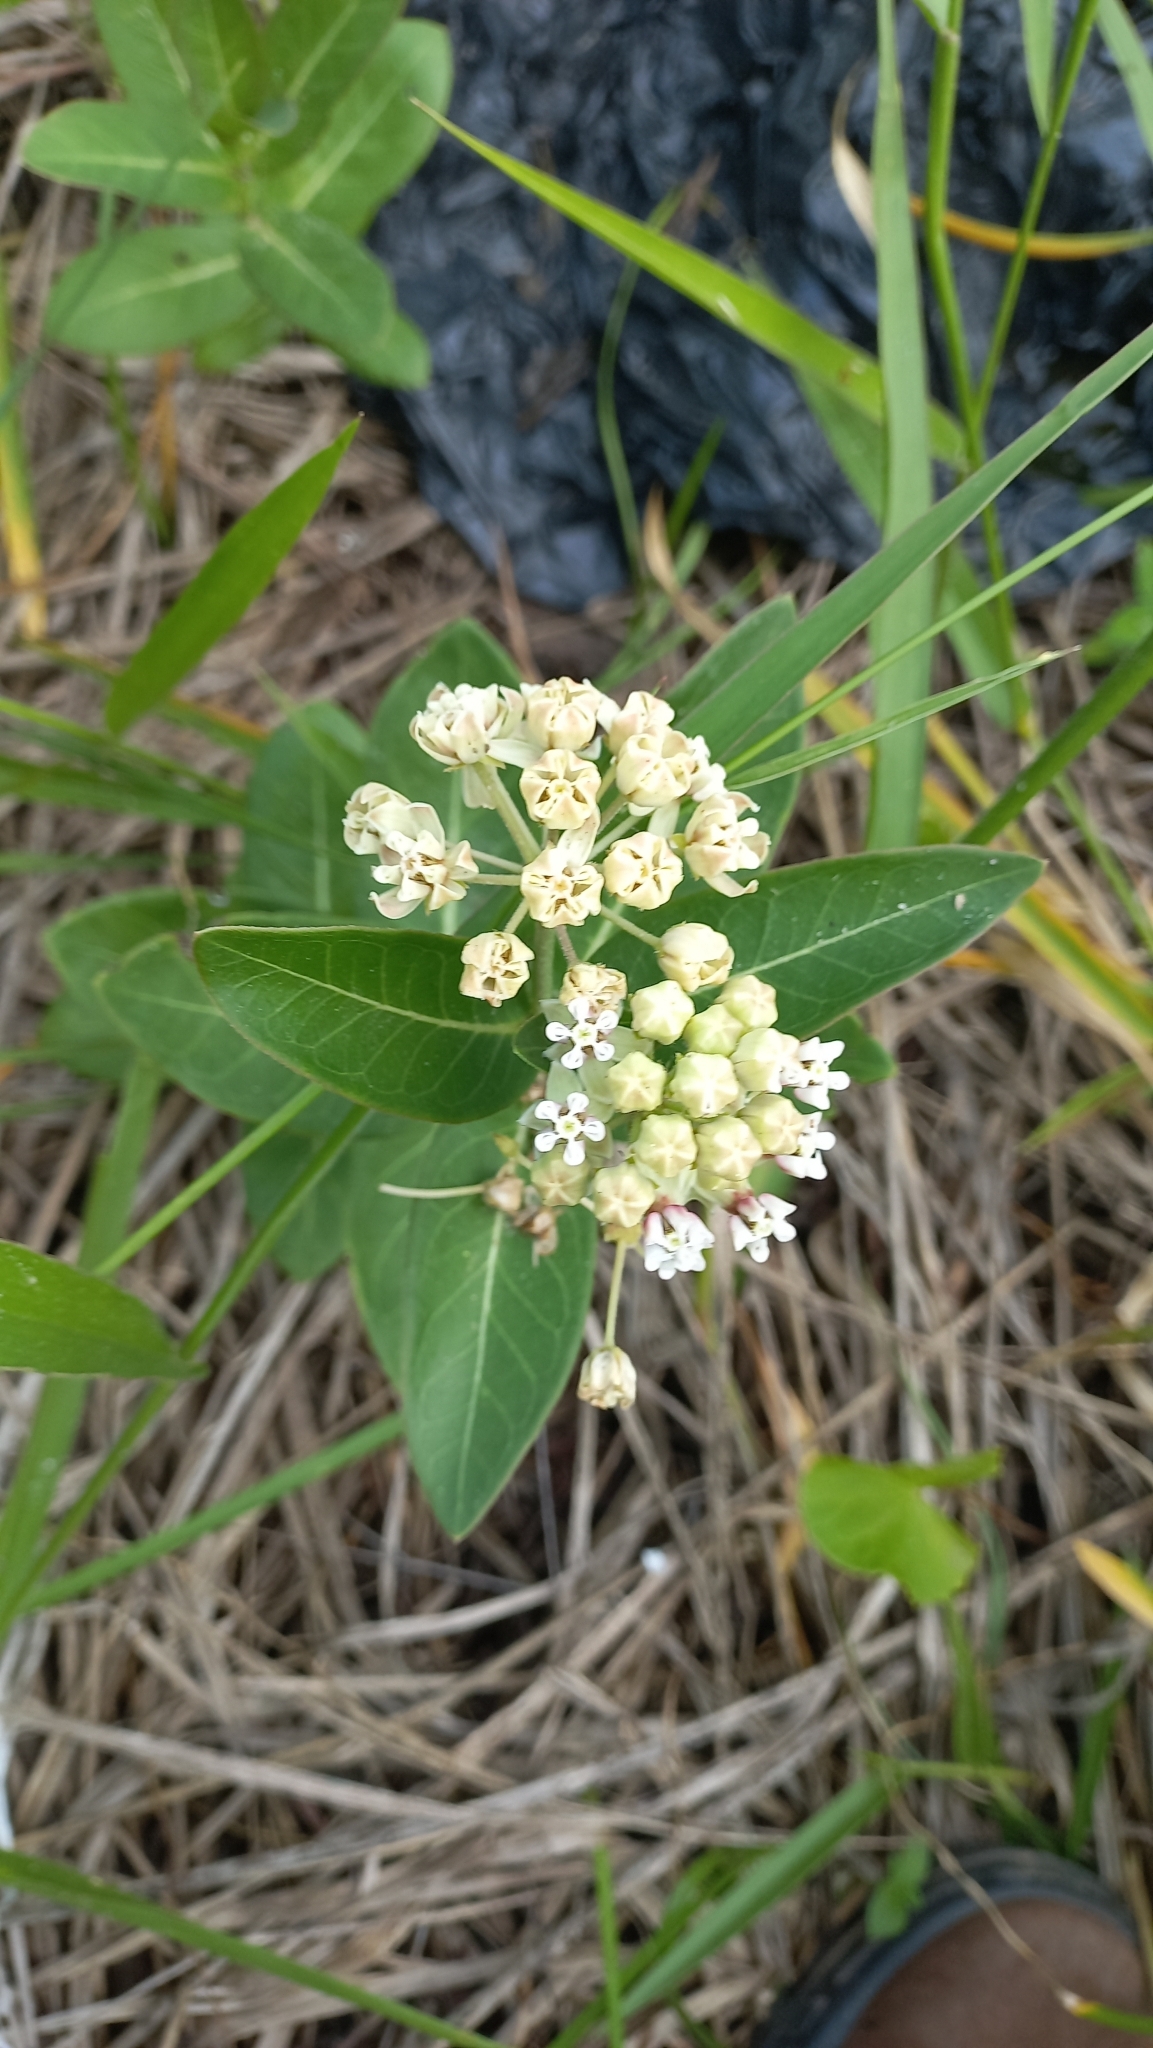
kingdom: Plantae
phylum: Tracheophyta
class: Magnoliopsida
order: Gentianales
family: Apocynaceae
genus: Asclepias
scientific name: Asclepias mellodora
